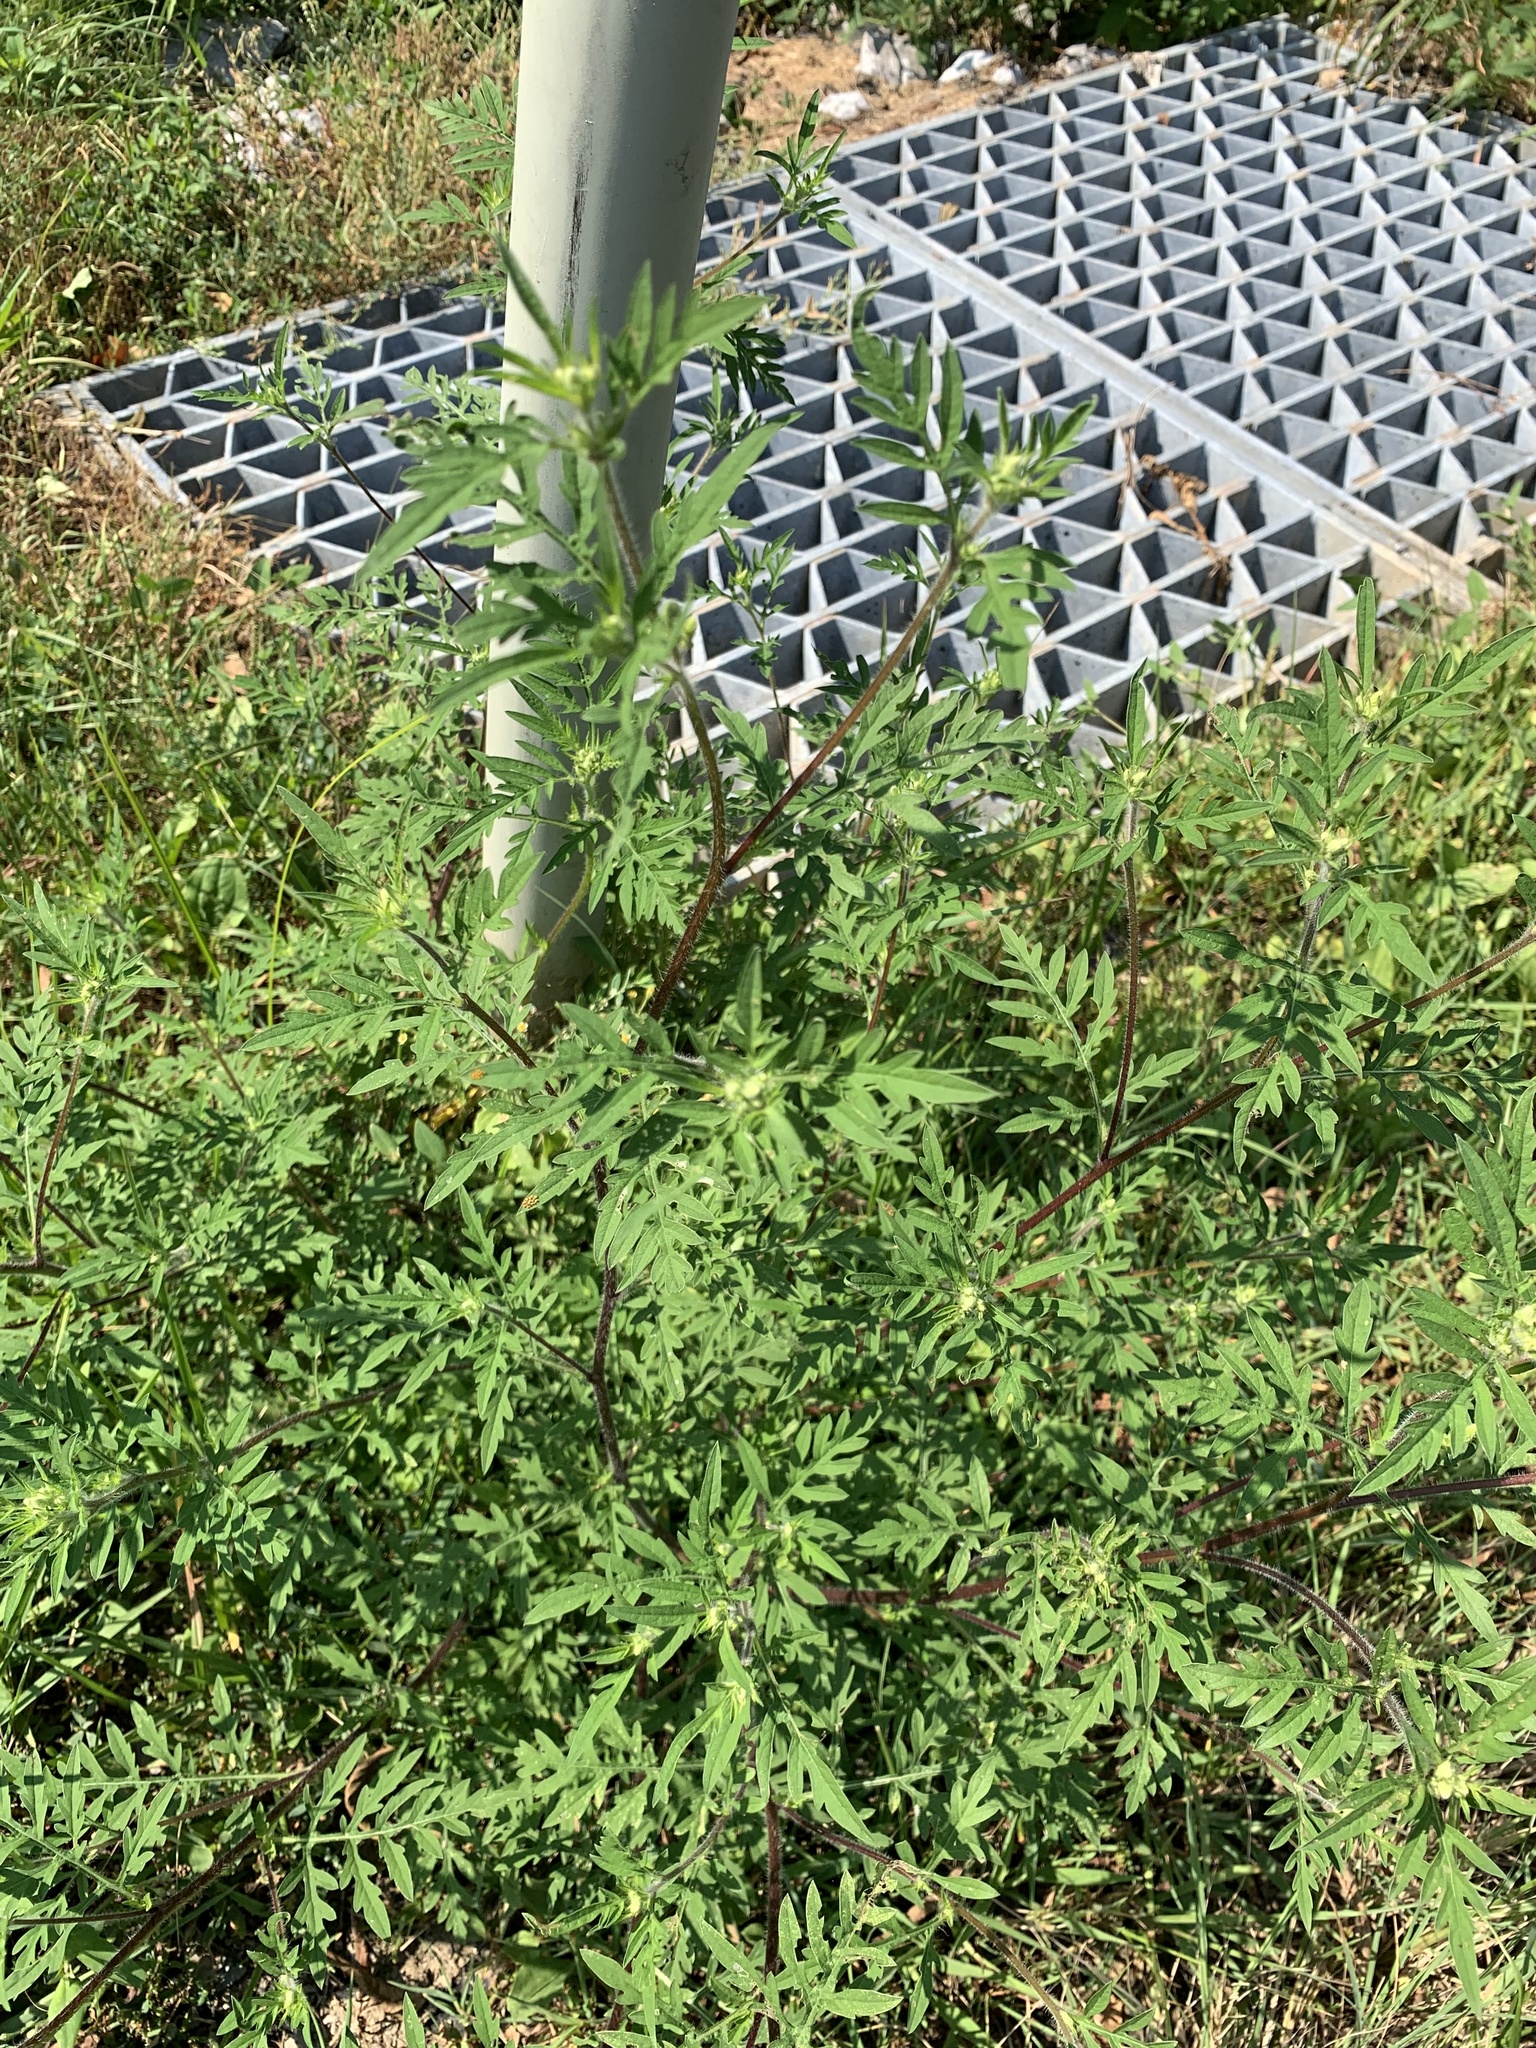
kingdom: Plantae
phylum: Tracheophyta
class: Magnoliopsida
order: Asterales
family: Asteraceae
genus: Ambrosia
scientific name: Ambrosia artemisiifolia
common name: Annual ragweed
